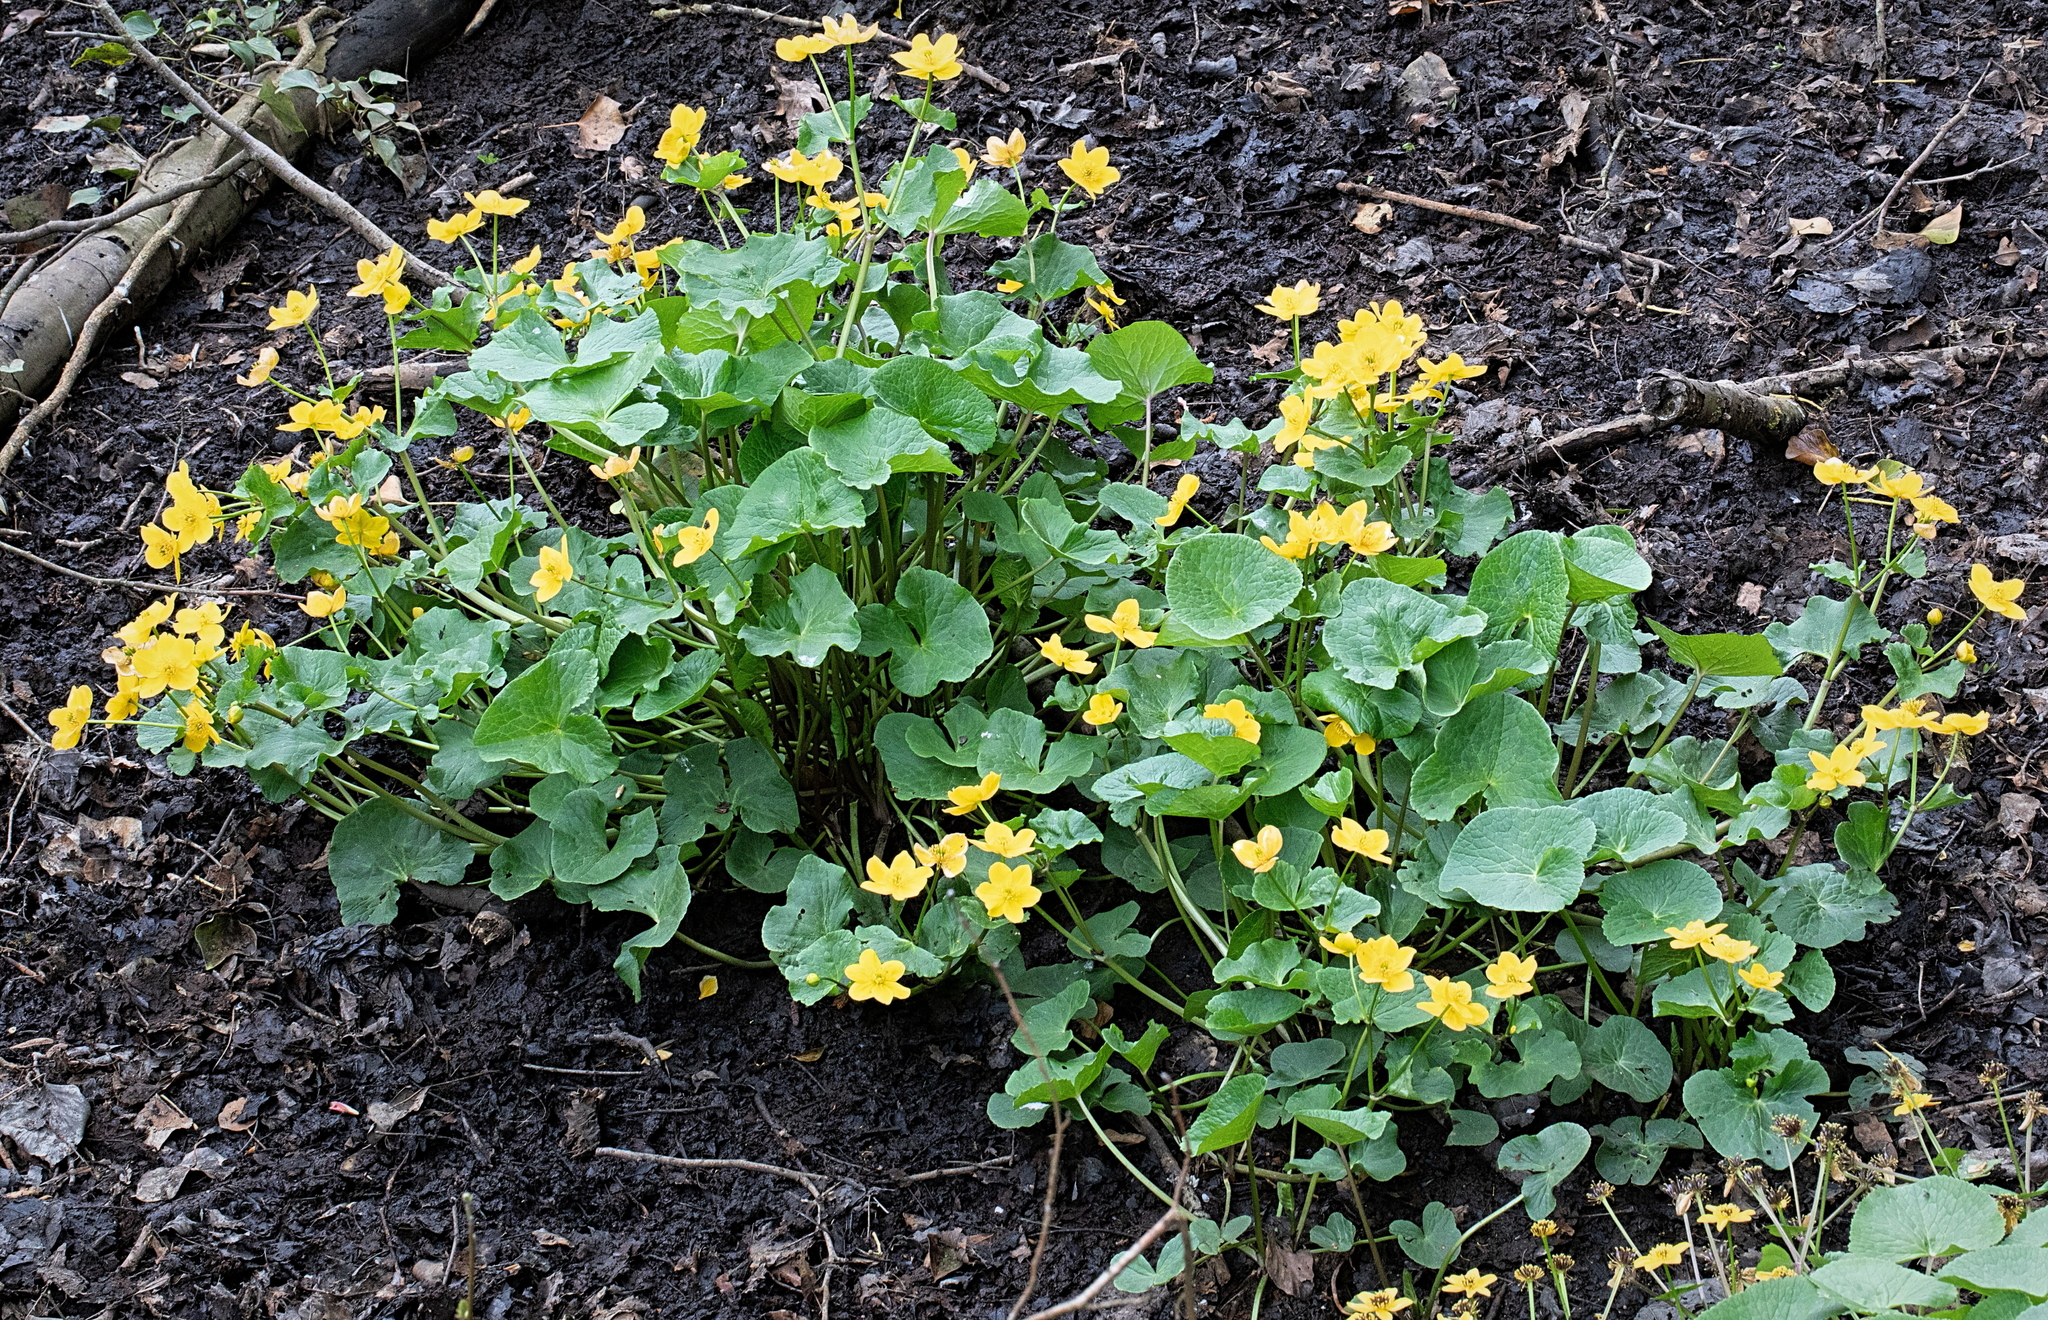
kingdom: Plantae
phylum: Tracheophyta
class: Magnoliopsida
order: Ranunculales
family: Ranunculaceae
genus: Caltha
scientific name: Caltha palustris
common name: Marsh marigold
